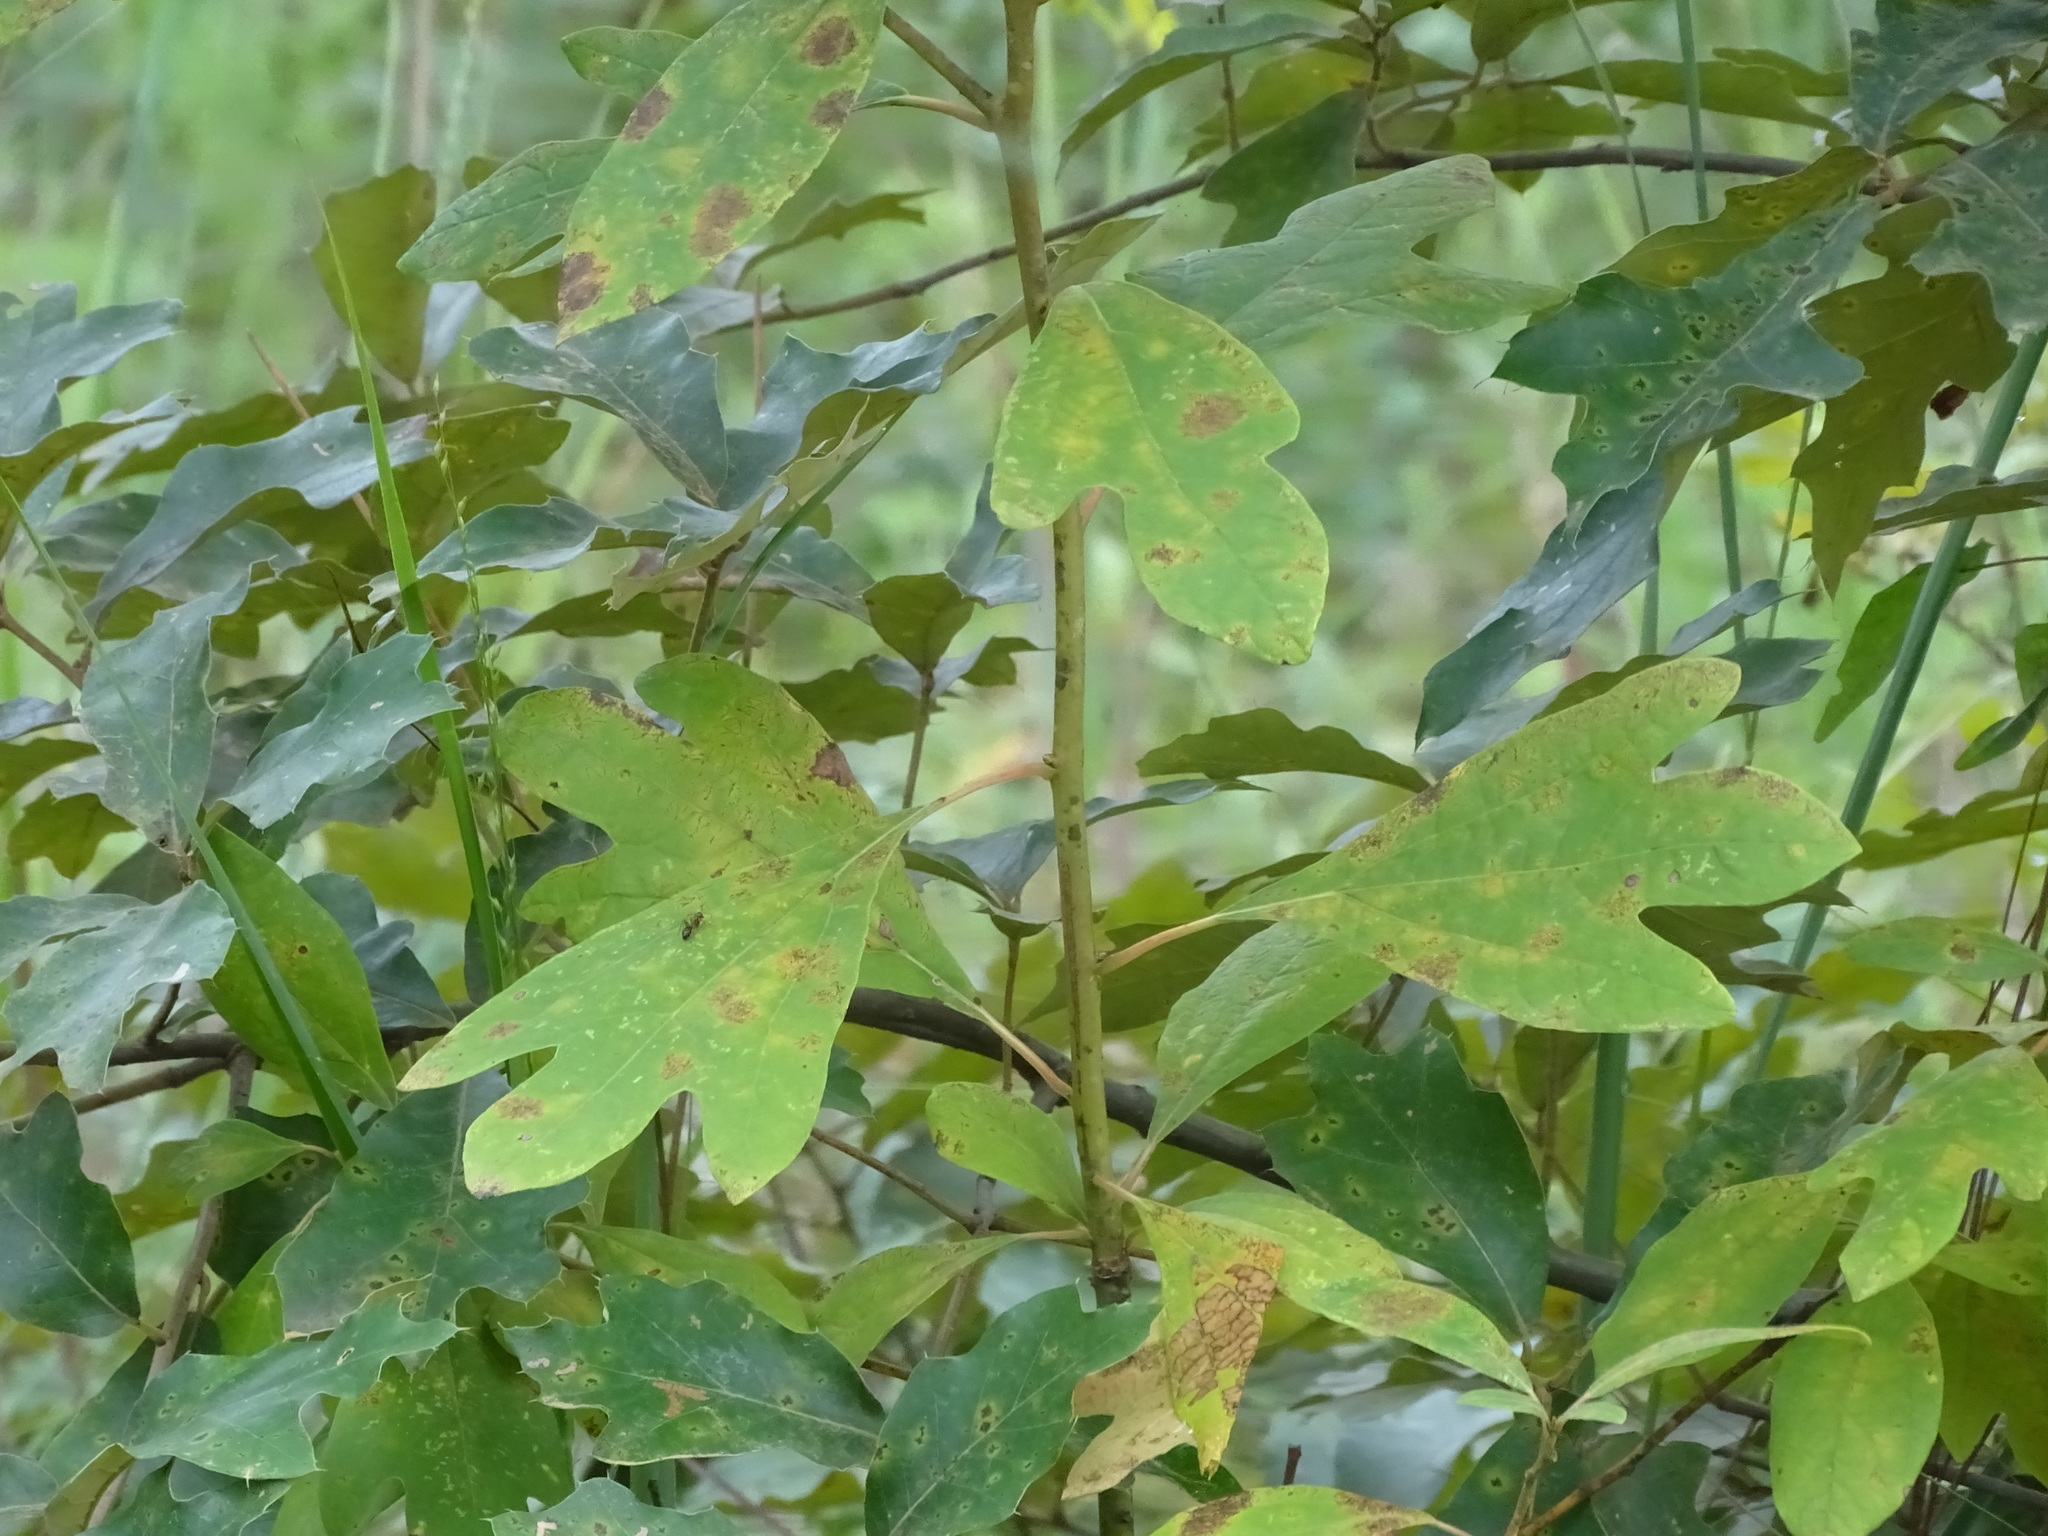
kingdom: Plantae
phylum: Tracheophyta
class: Magnoliopsida
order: Laurales
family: Lauraceae
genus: Sassafras
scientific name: Sassafras albidum
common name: Sassafras
